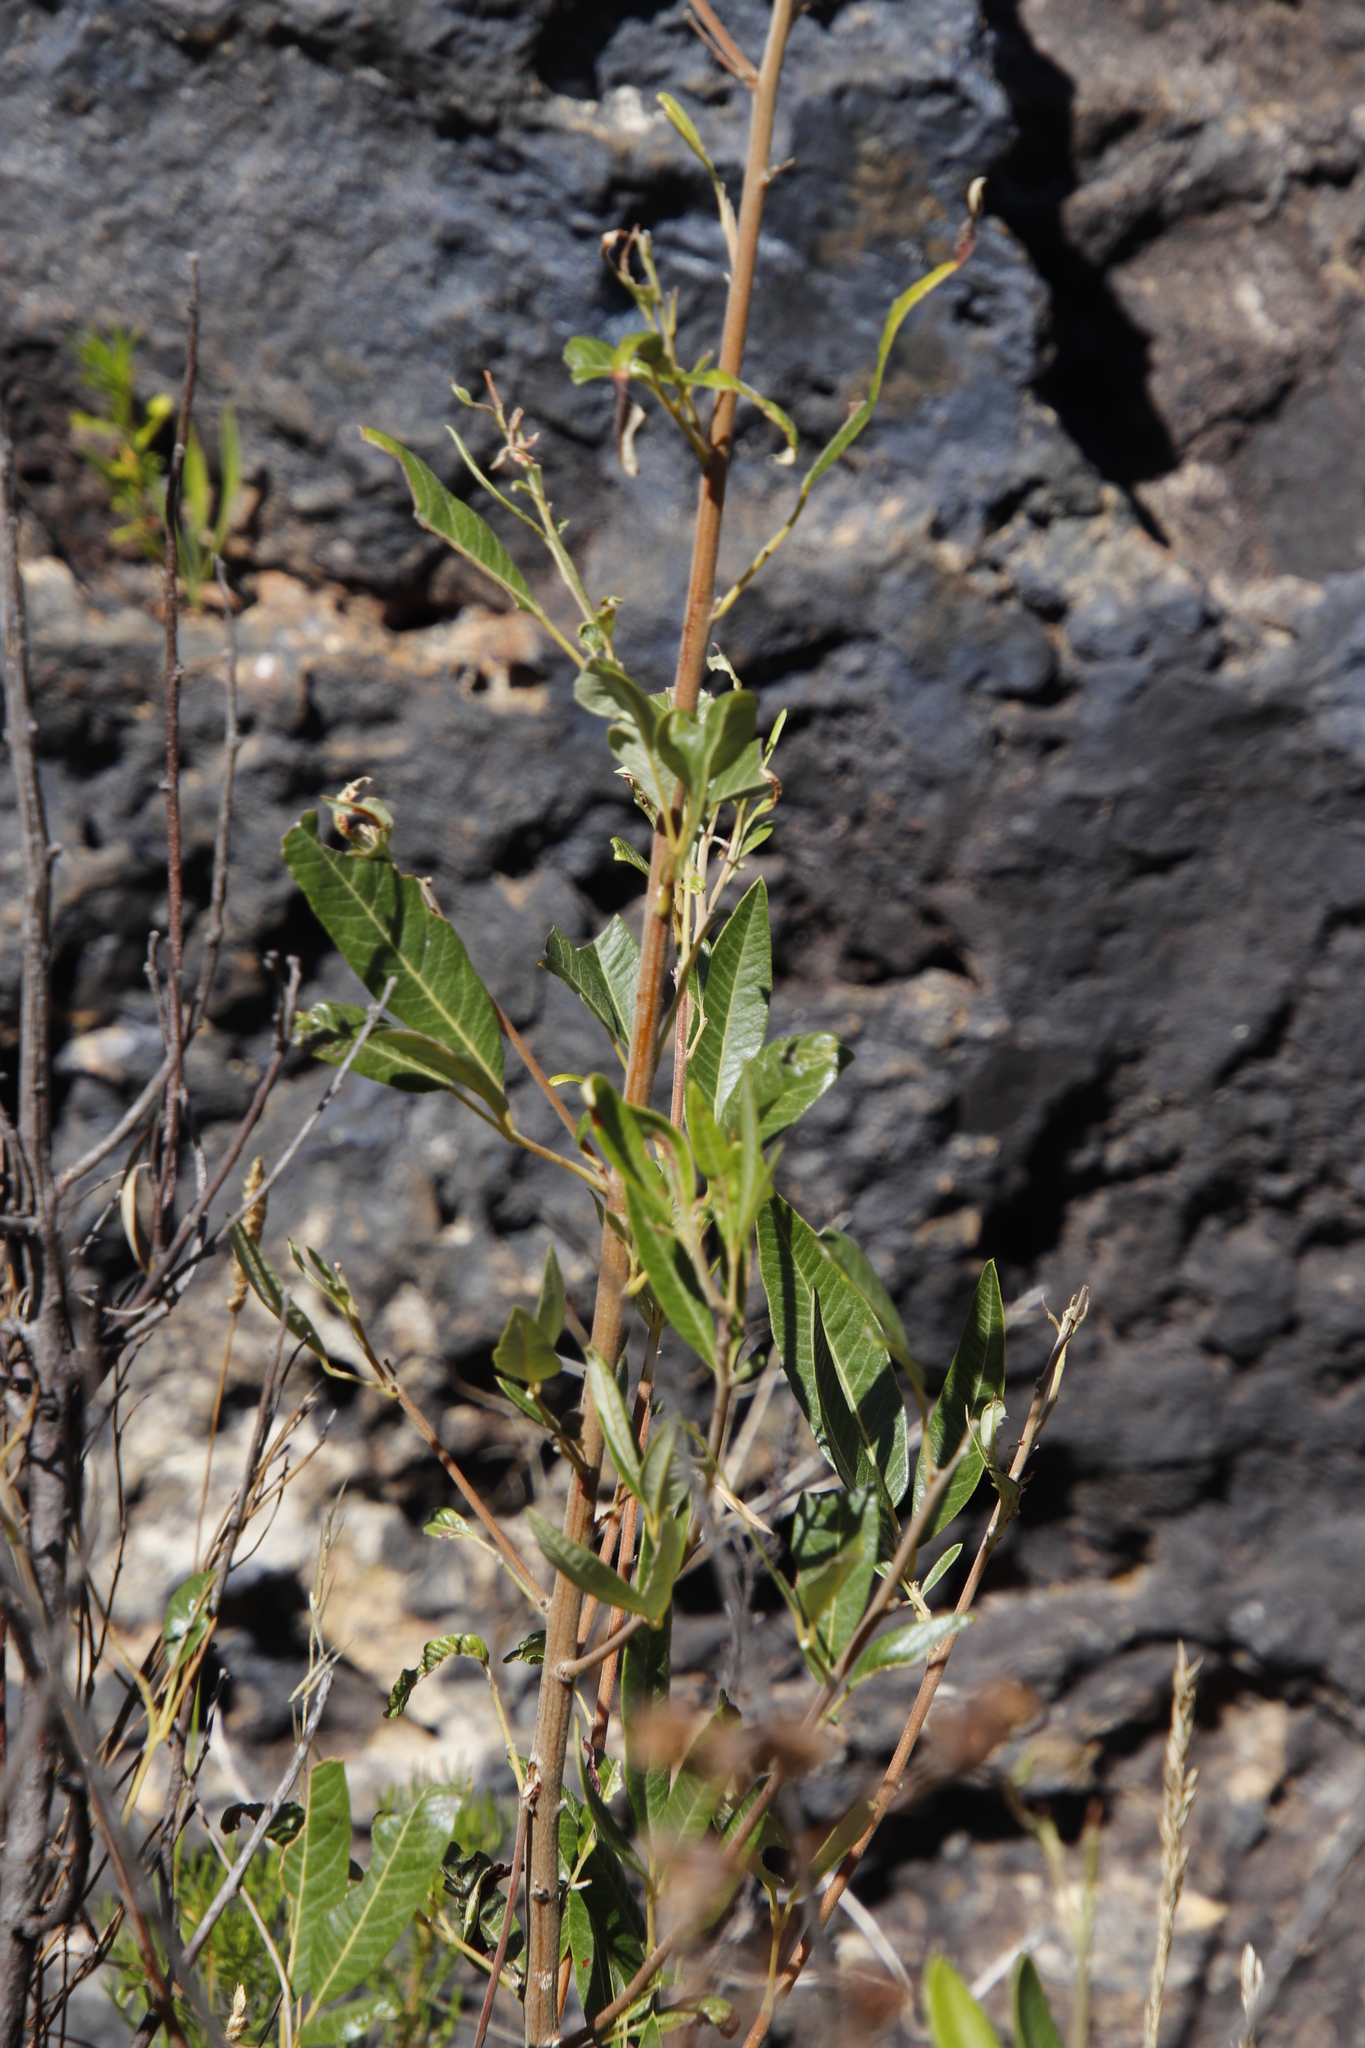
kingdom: Plantae
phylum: Tracheophyta
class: Magnoliopsida
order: Sapindales
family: Anacardiaceae
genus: Searsia
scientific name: Searsia angustifolia
